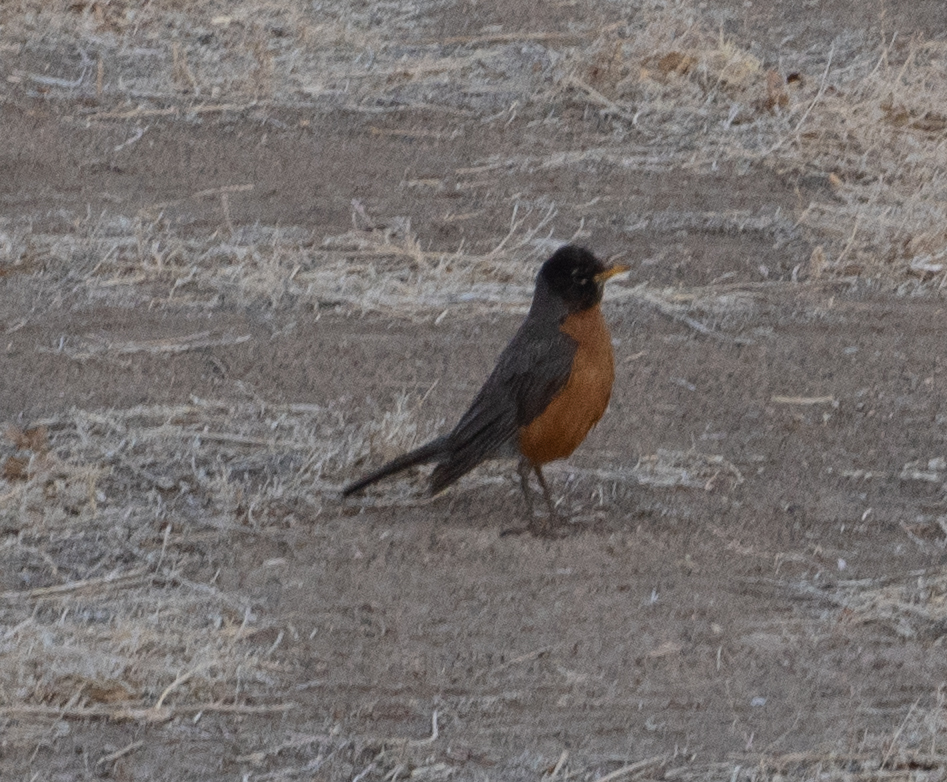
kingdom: Animalia
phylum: Chordata
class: Aves
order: Passeriformes
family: Turdidae
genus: Turdus
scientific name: Turdus migratorius
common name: American robin
